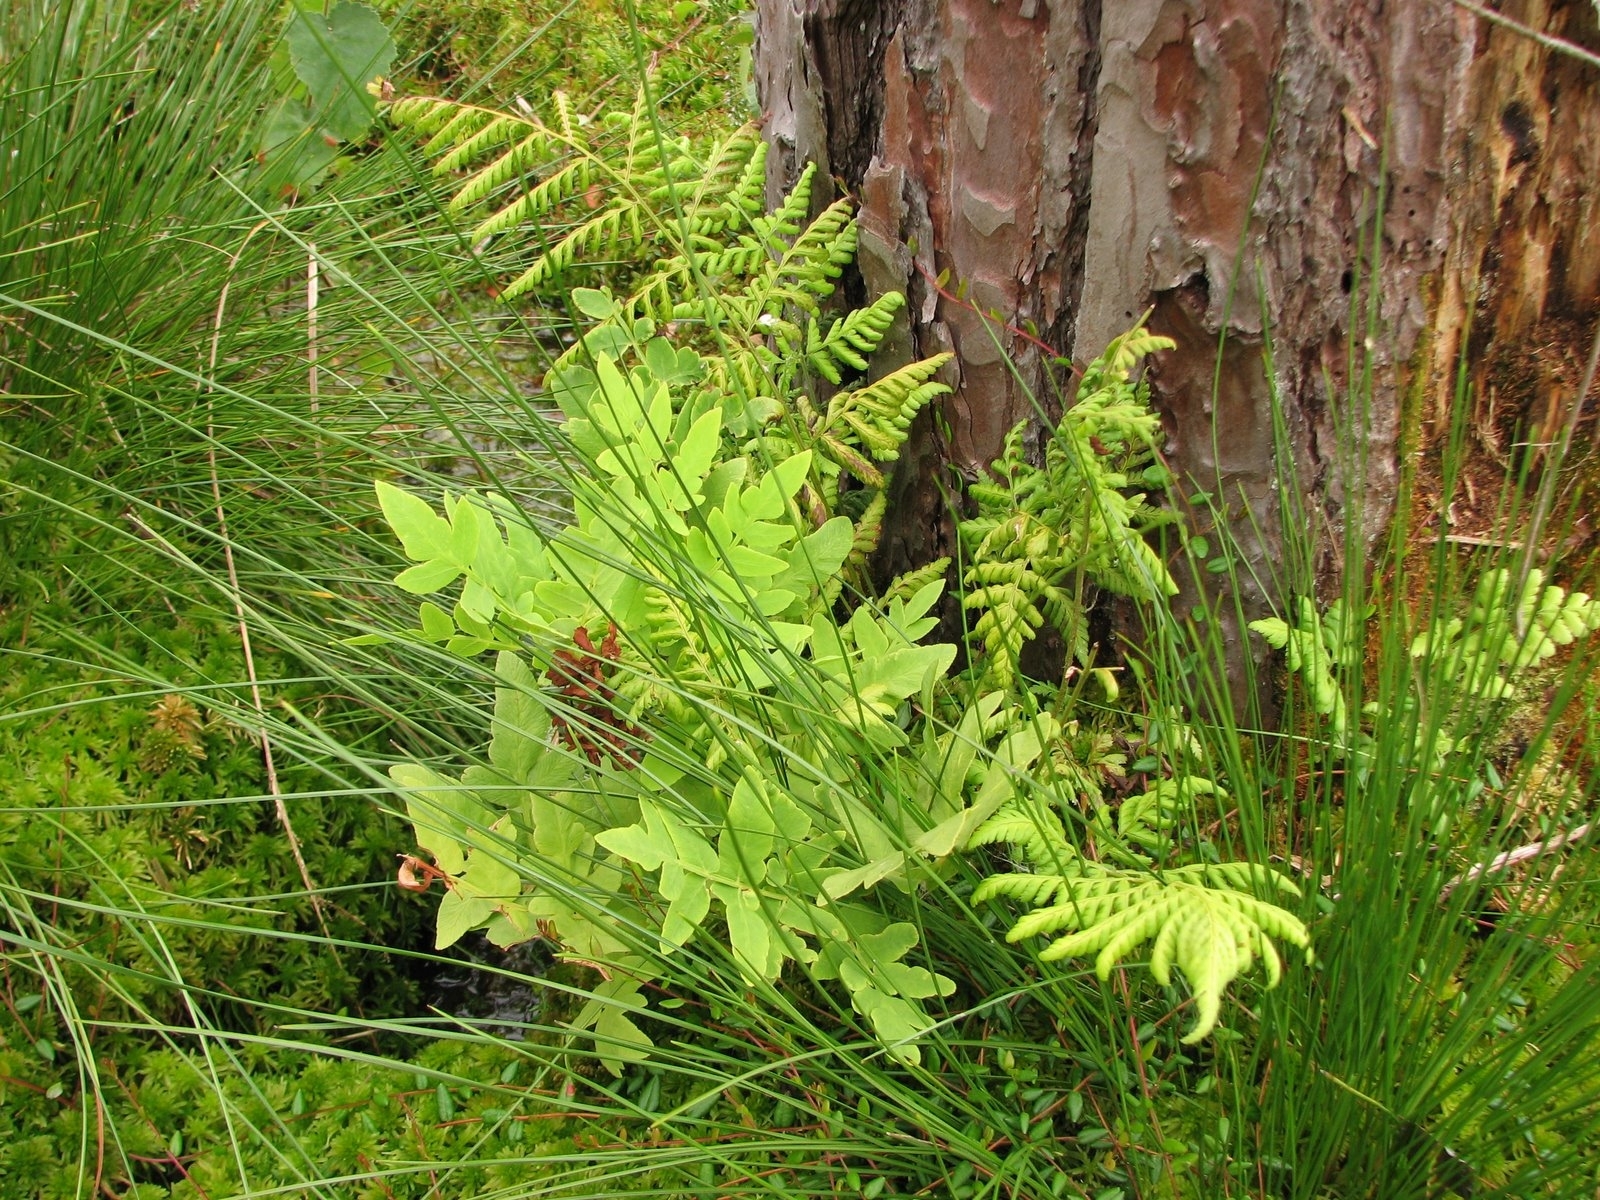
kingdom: Plantae
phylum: Tracheophyta
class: Polypodiopsida
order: Osmundales
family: Osmundaceae
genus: Osmunda
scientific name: Osmunda regalis
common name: Royal fern
